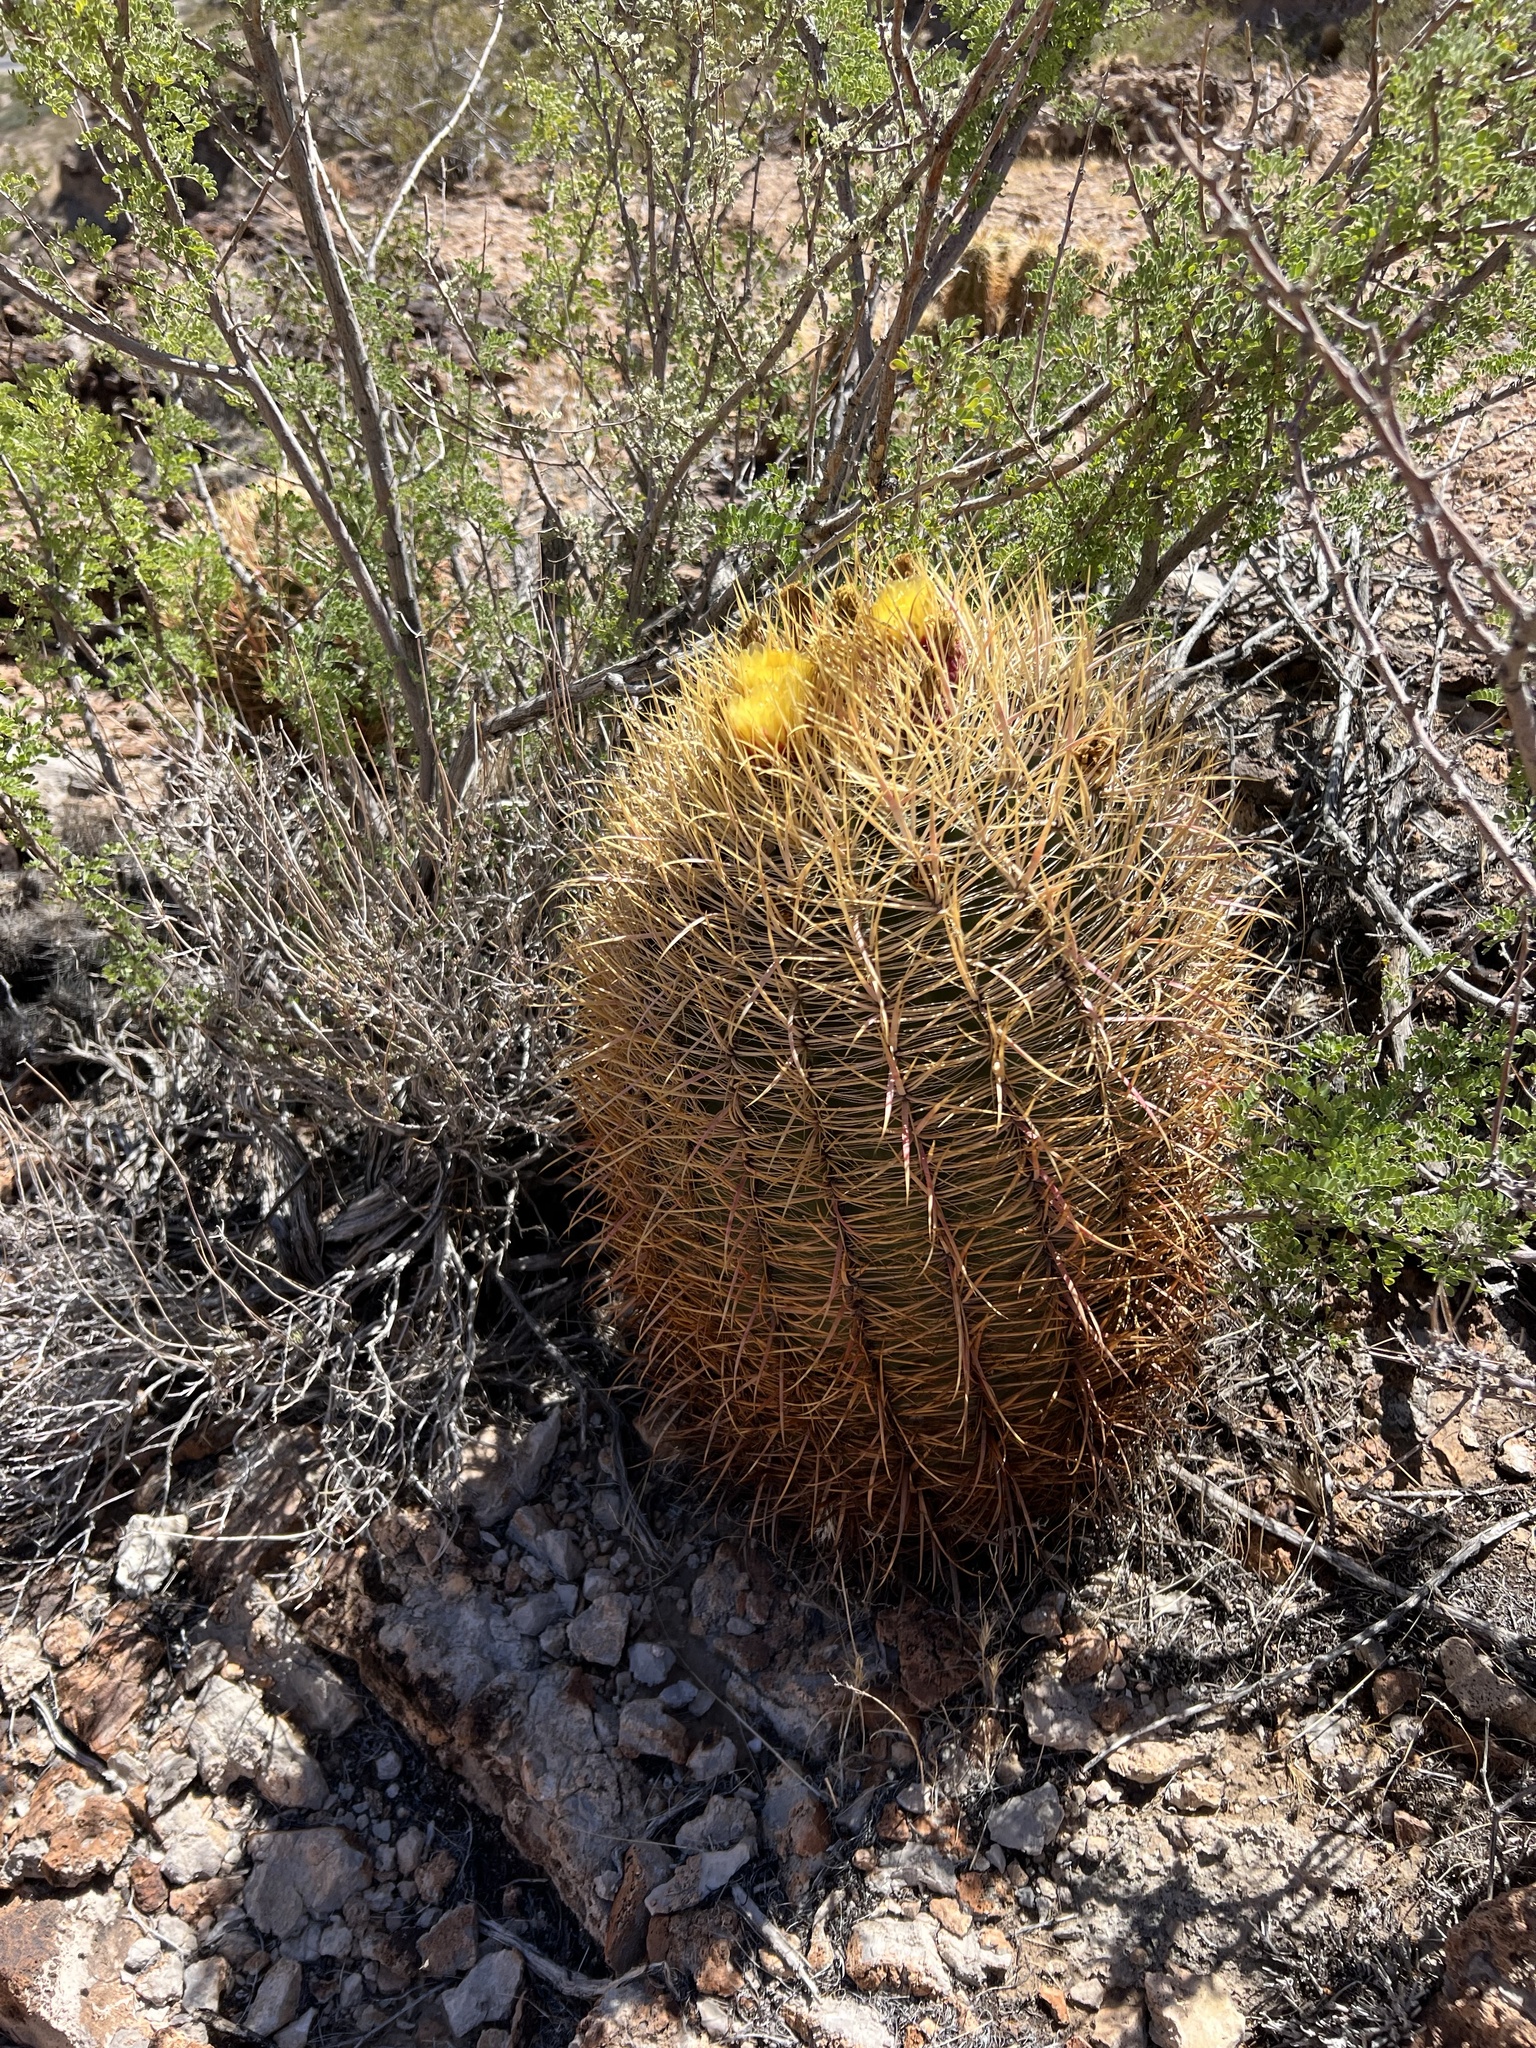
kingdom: Plantae
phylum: Tracheophyta
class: Magnoliopsida
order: Caryophyllales
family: Cactaceae
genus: Ferocactus
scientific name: Ferocactus cylindraceus
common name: California barrel cactus
